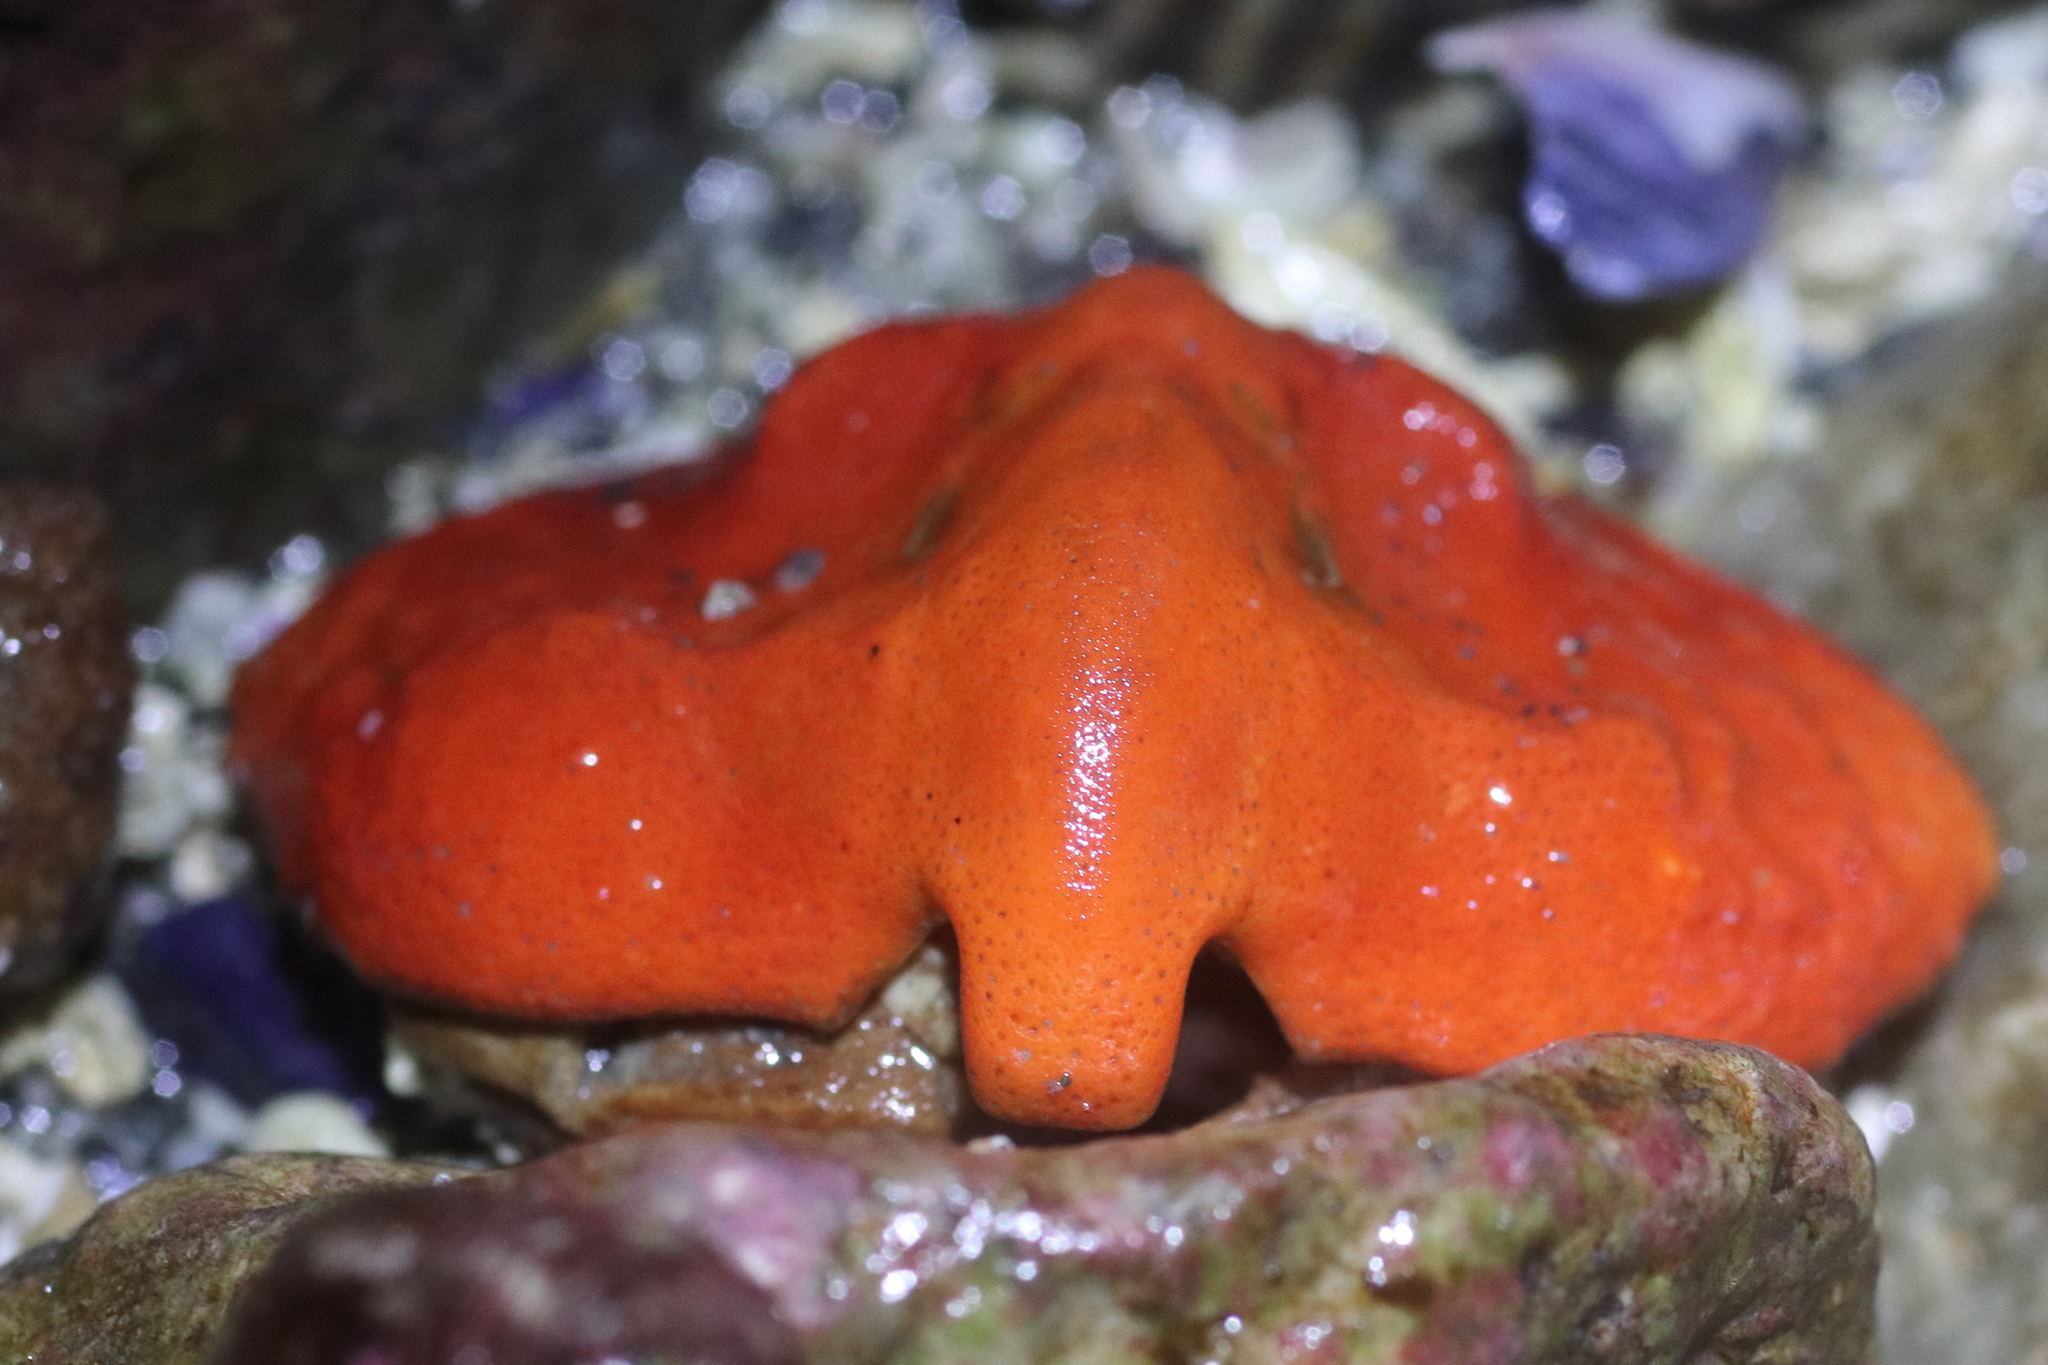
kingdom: Animalia
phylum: Arthropoda
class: Malacostraca
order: Decapoda
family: Lithodidae
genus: Cryptolithodes
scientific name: Cryptolithodes typicus
